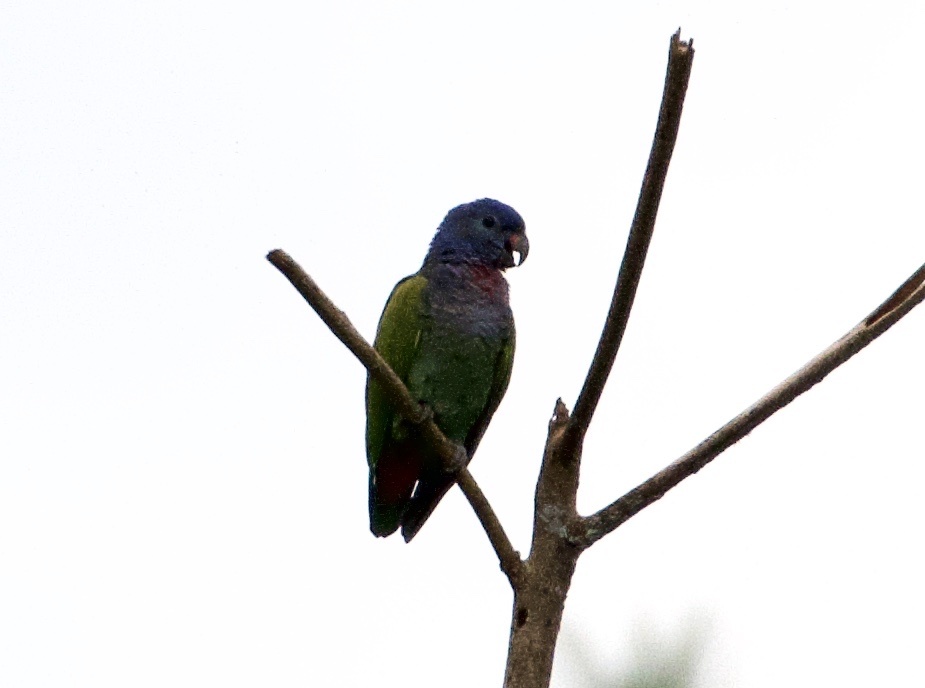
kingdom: Animalia
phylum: Chordata
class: Aves
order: Psittaciformes
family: Psittacidae
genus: Pionus
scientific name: Pionus menstruus
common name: Blue-headed parrot
